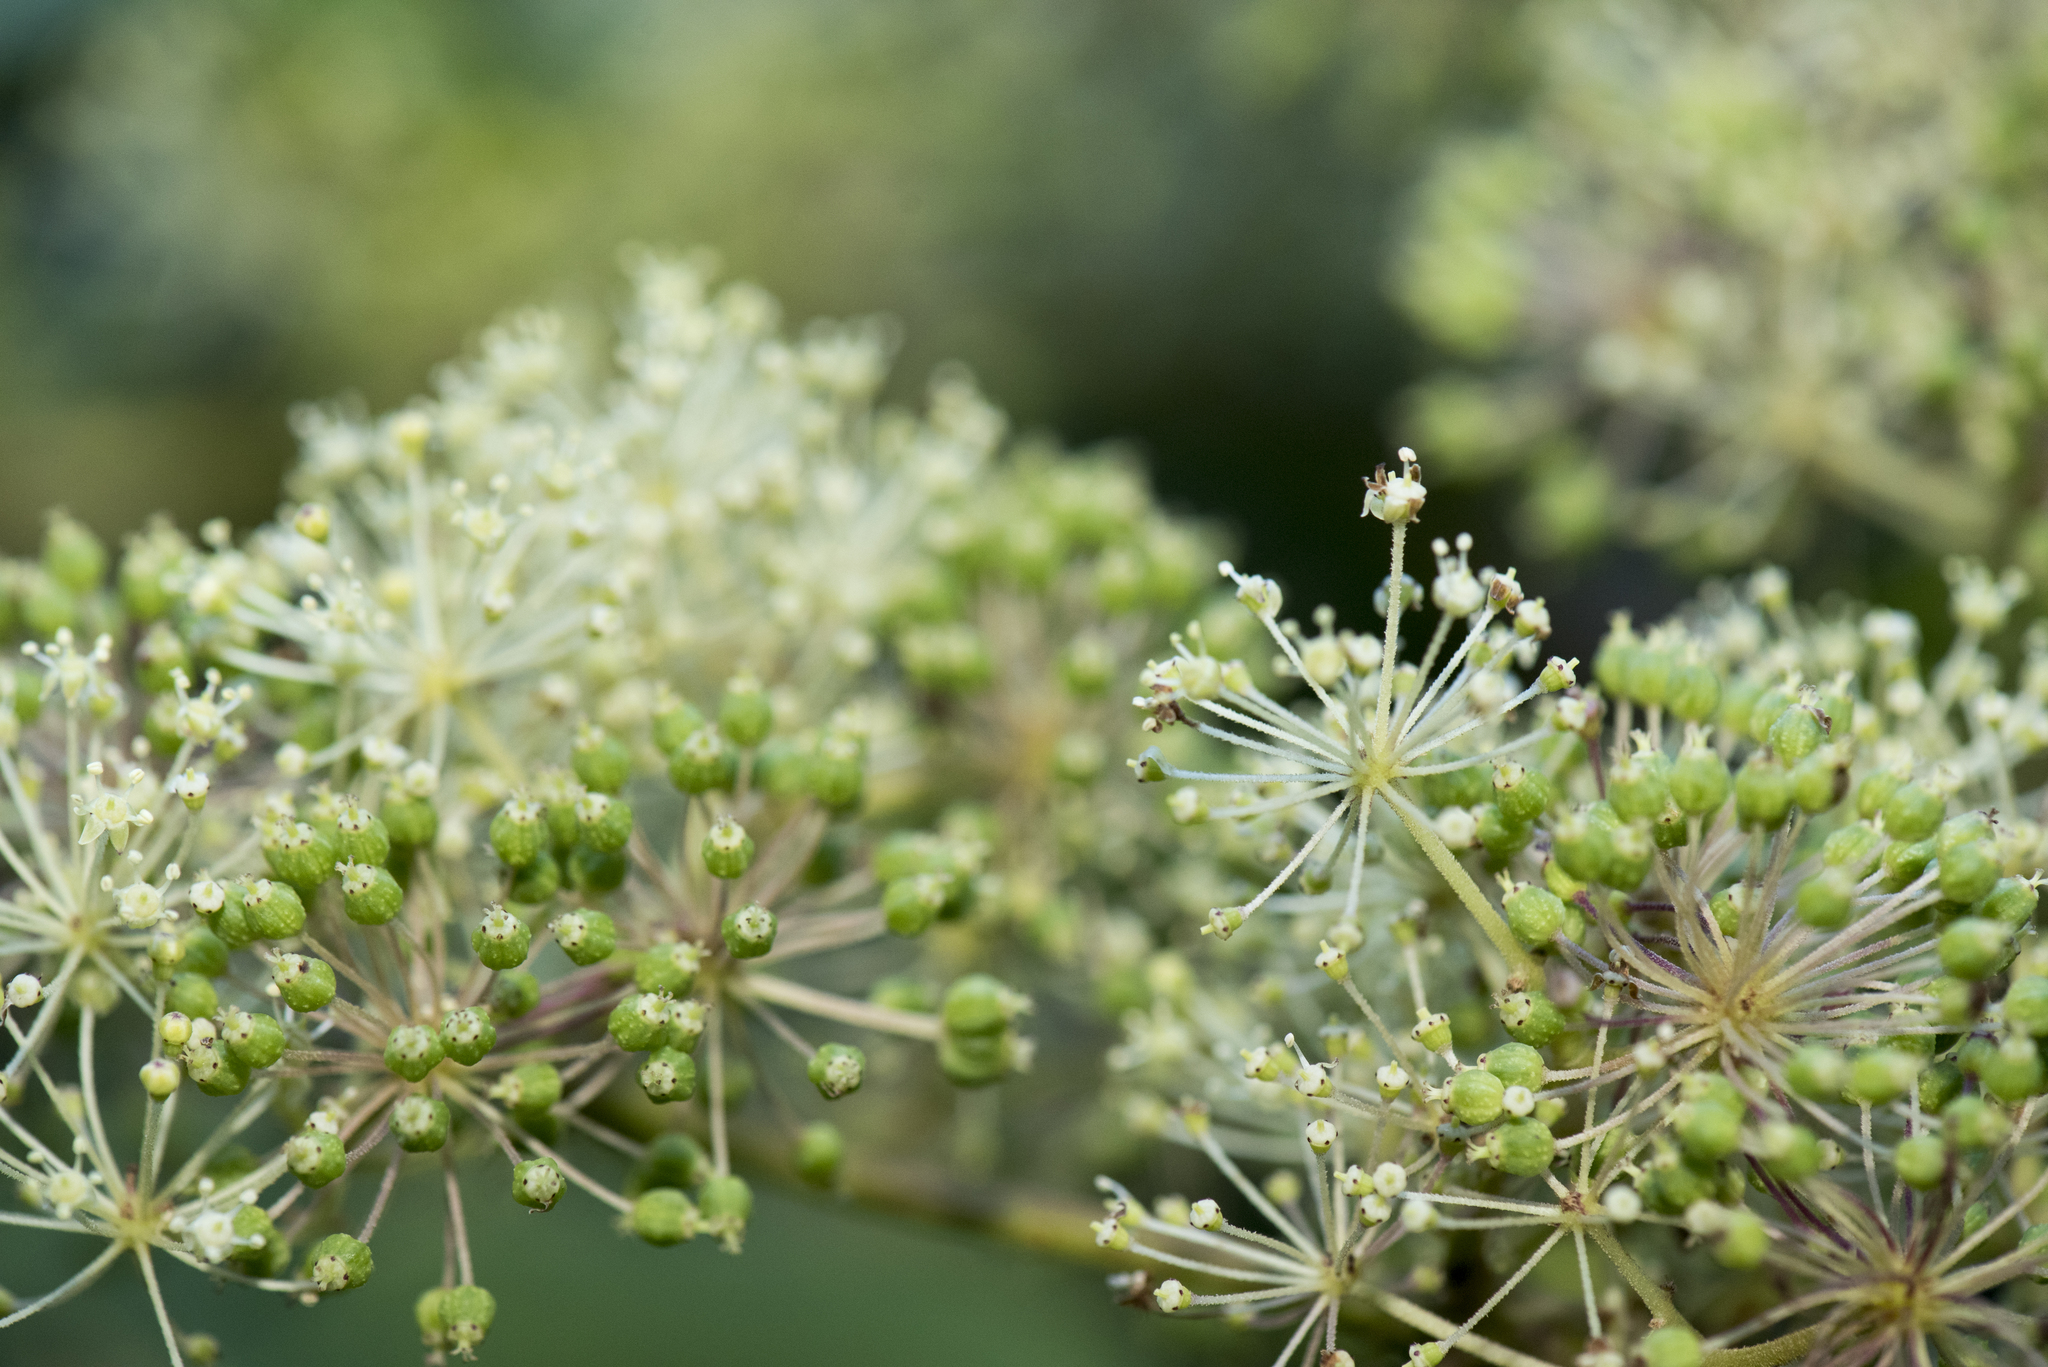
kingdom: Plantae
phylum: Tracheophyta
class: Magnoliopsida
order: Apiales
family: Araliaceae
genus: Aralia
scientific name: Aralia cordata
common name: Udo
